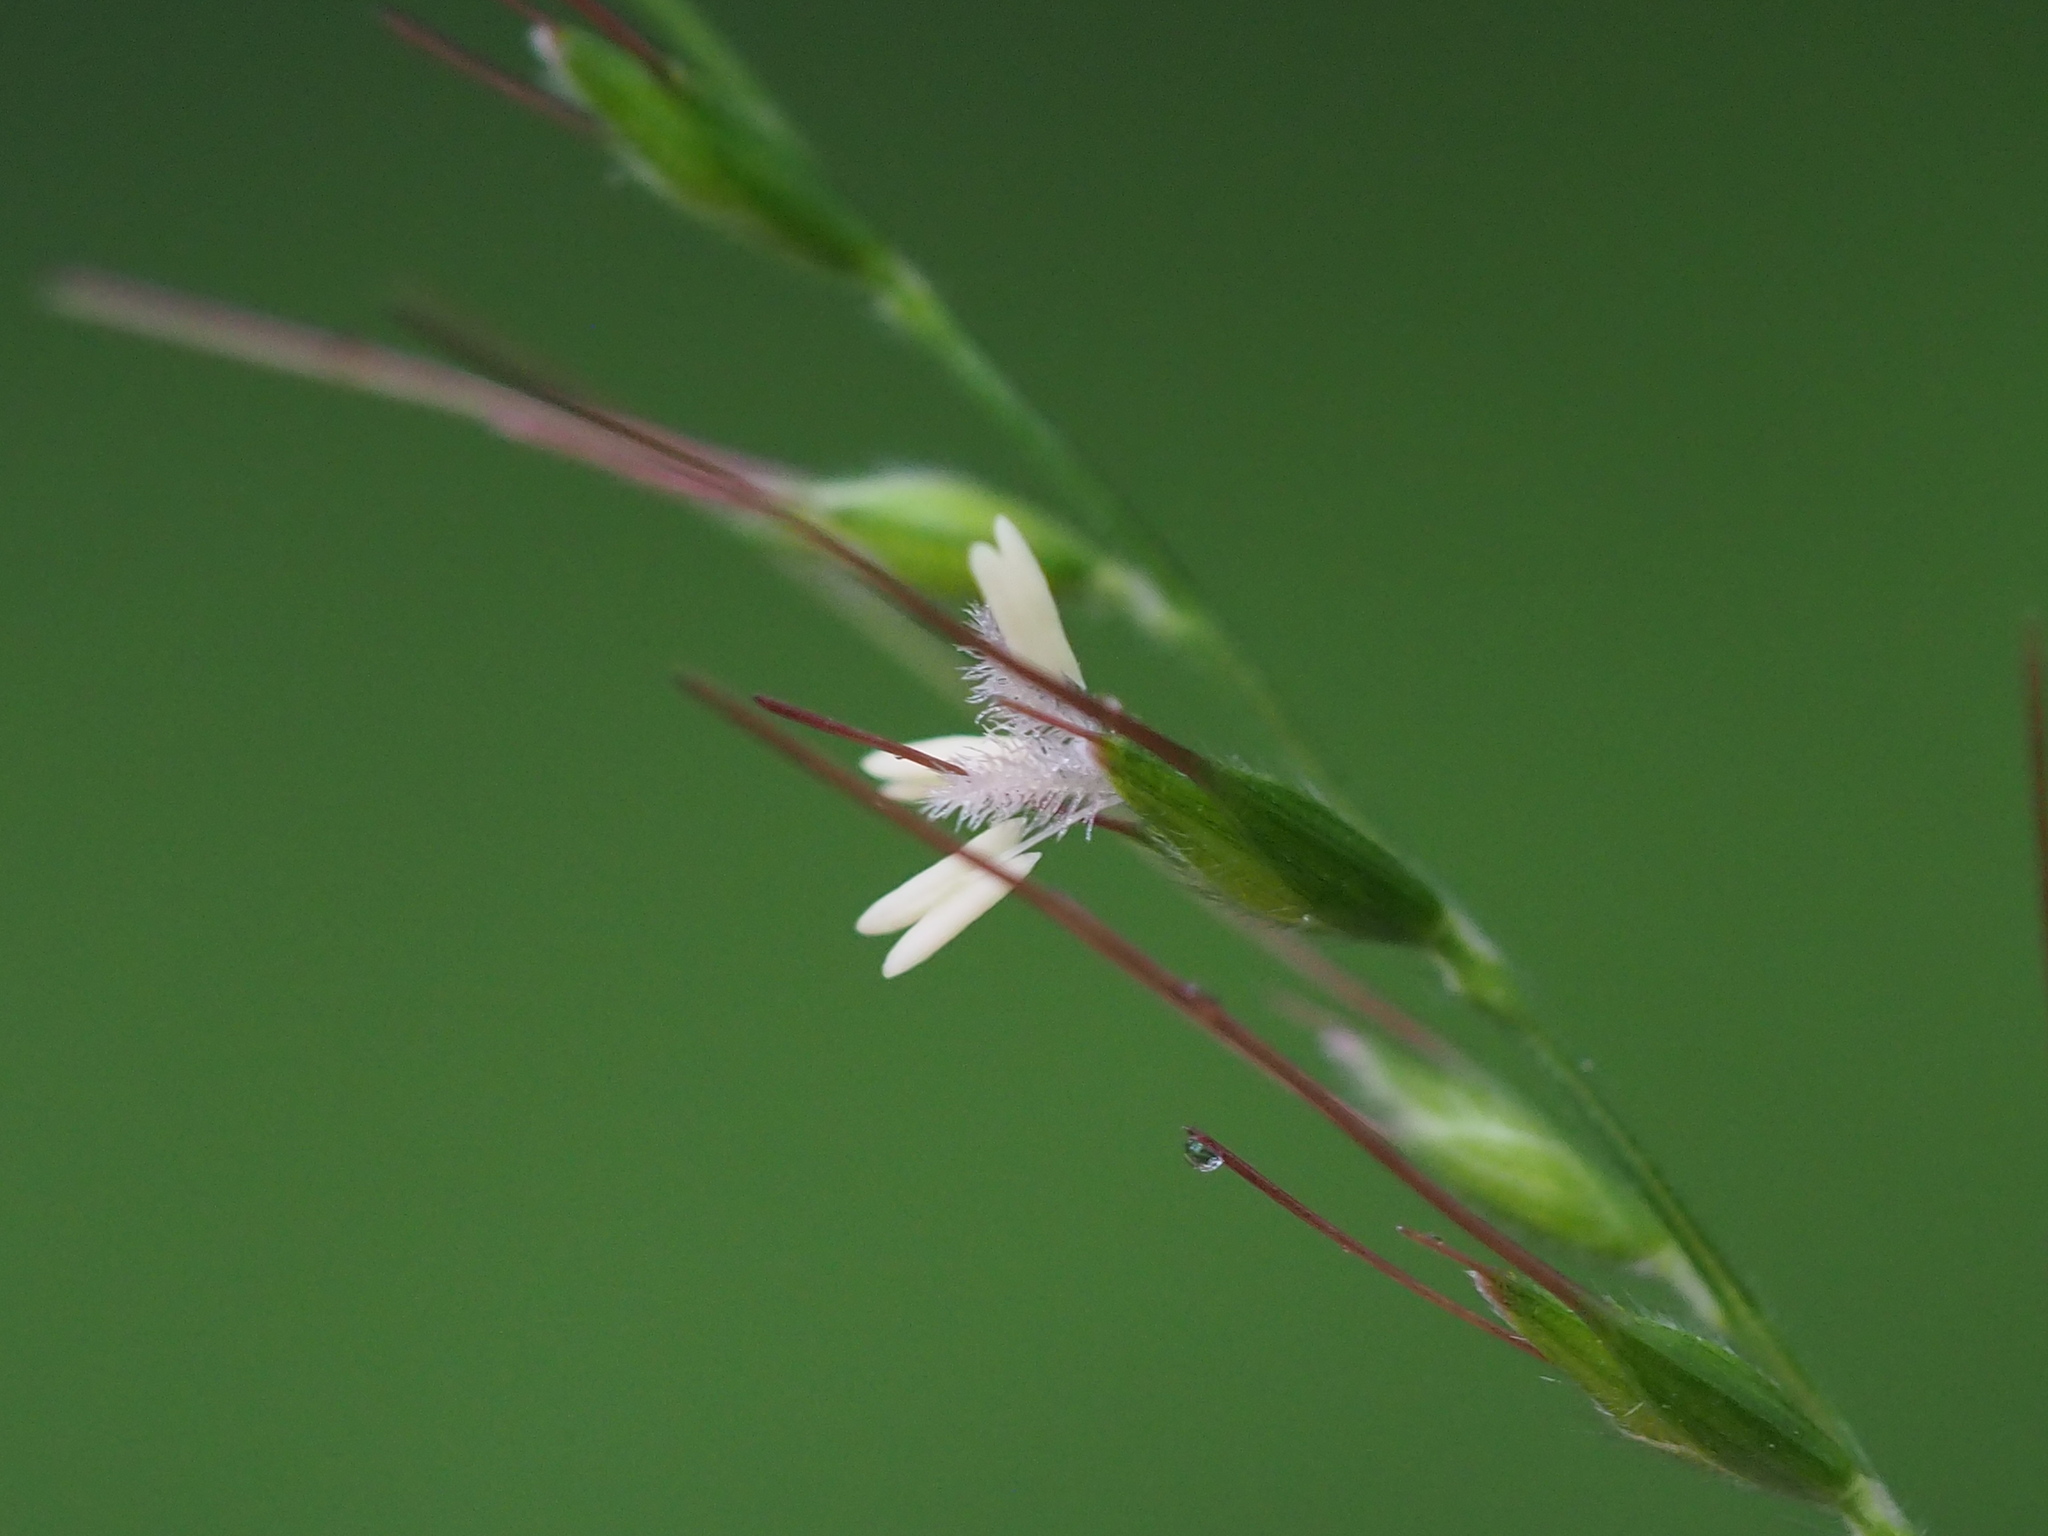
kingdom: Plantae
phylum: Tracheophyta
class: Liliopsida
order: Poales
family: Poaceae
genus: Oplismenus
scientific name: Oplismenus compositus
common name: Running mountain grass
